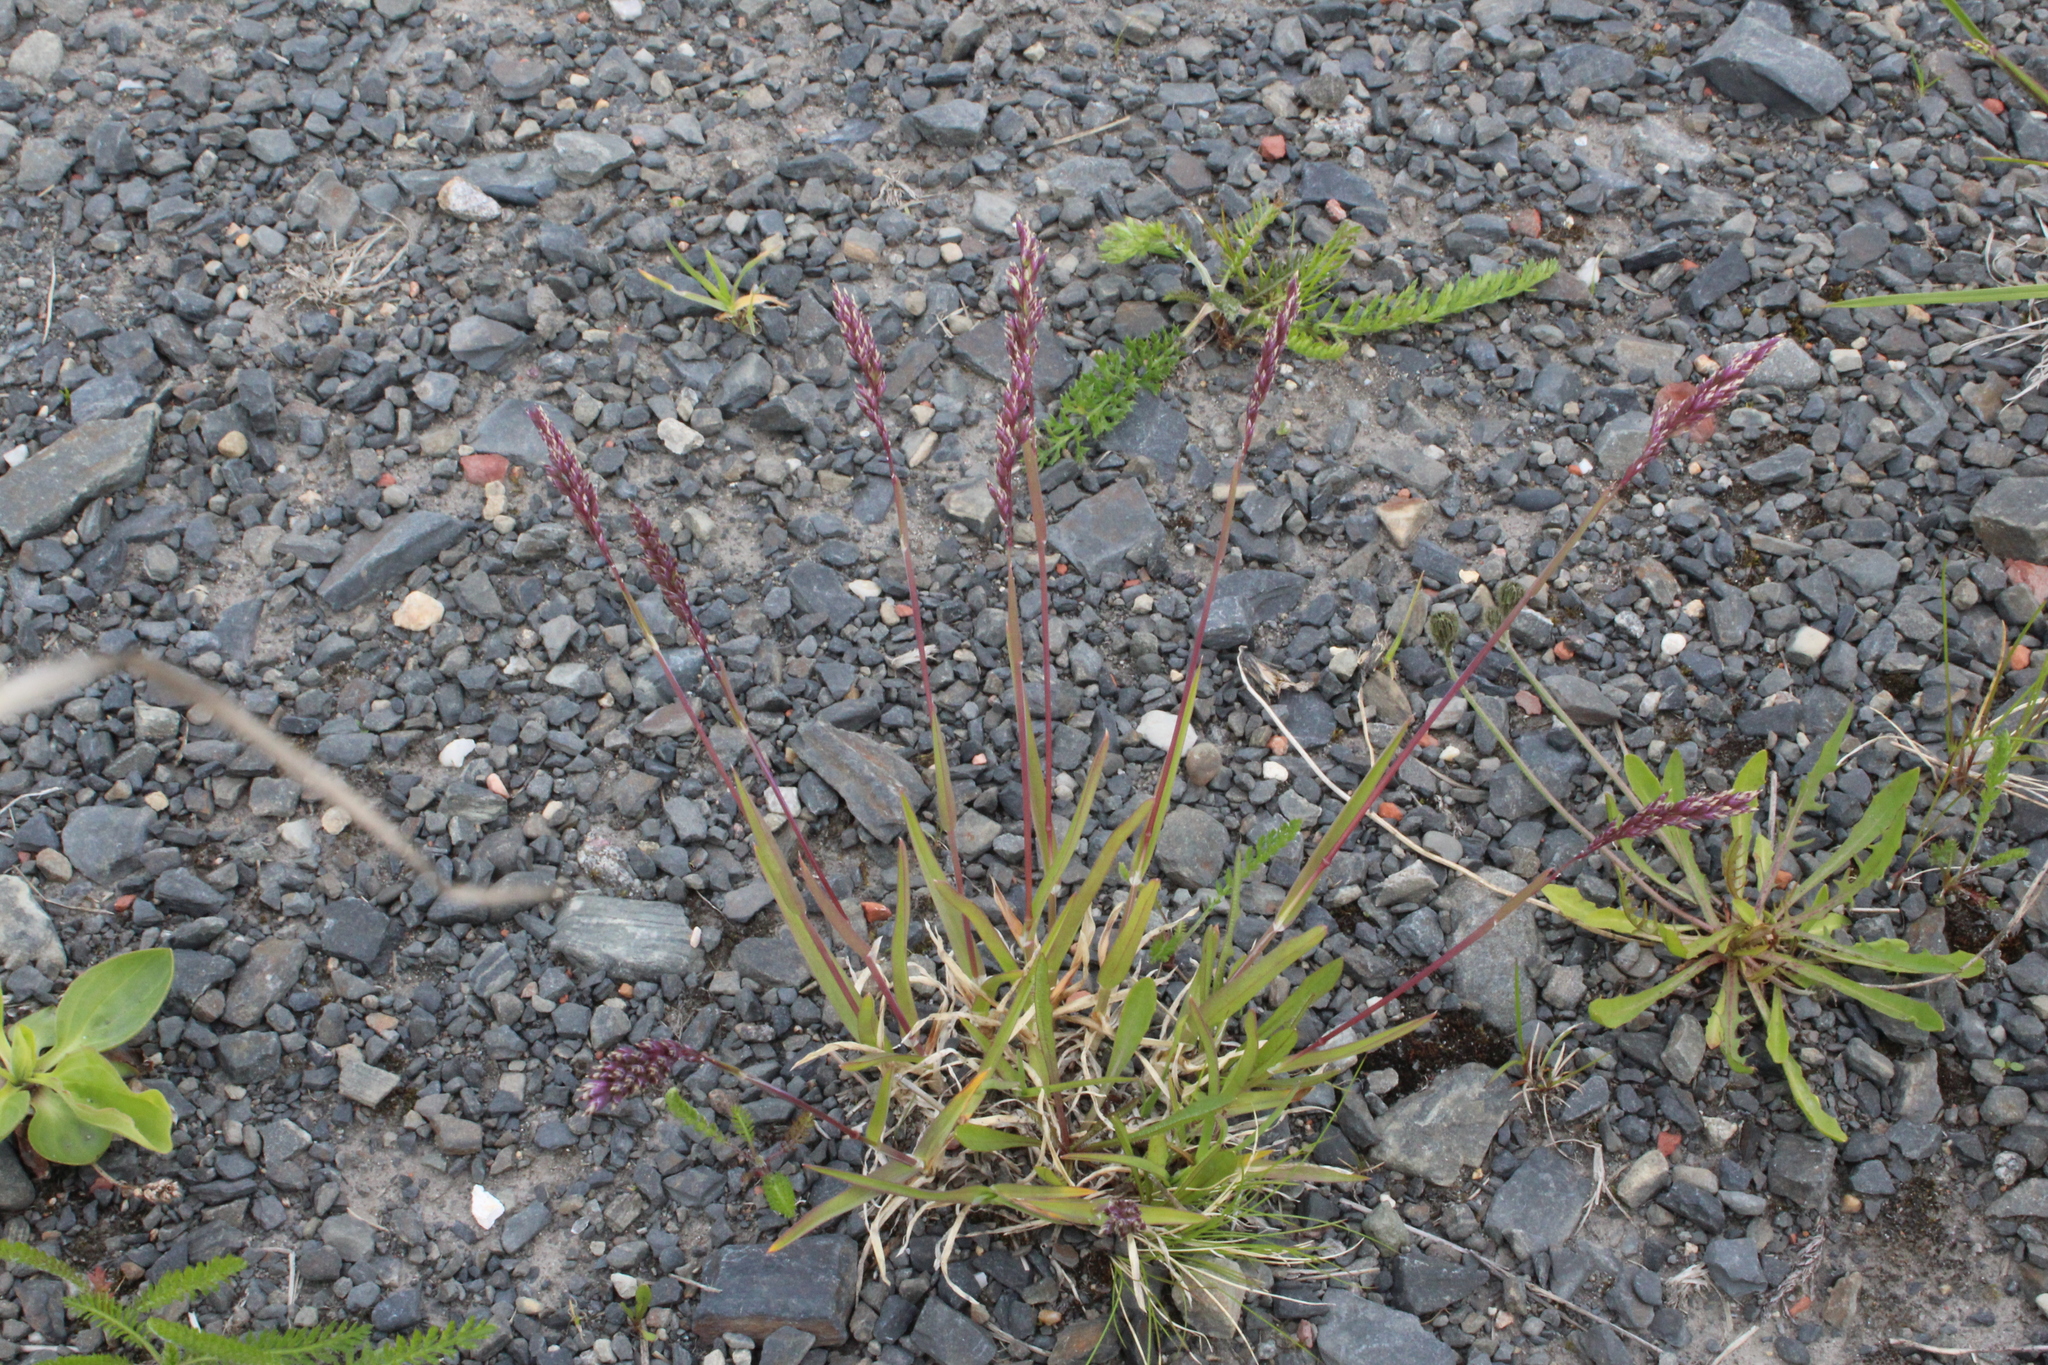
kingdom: Plantae
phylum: Tracheophyta
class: Liliopsida
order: Poales
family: Poaceae
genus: Poa
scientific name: Poa alpina
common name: Alpine bluegrass
